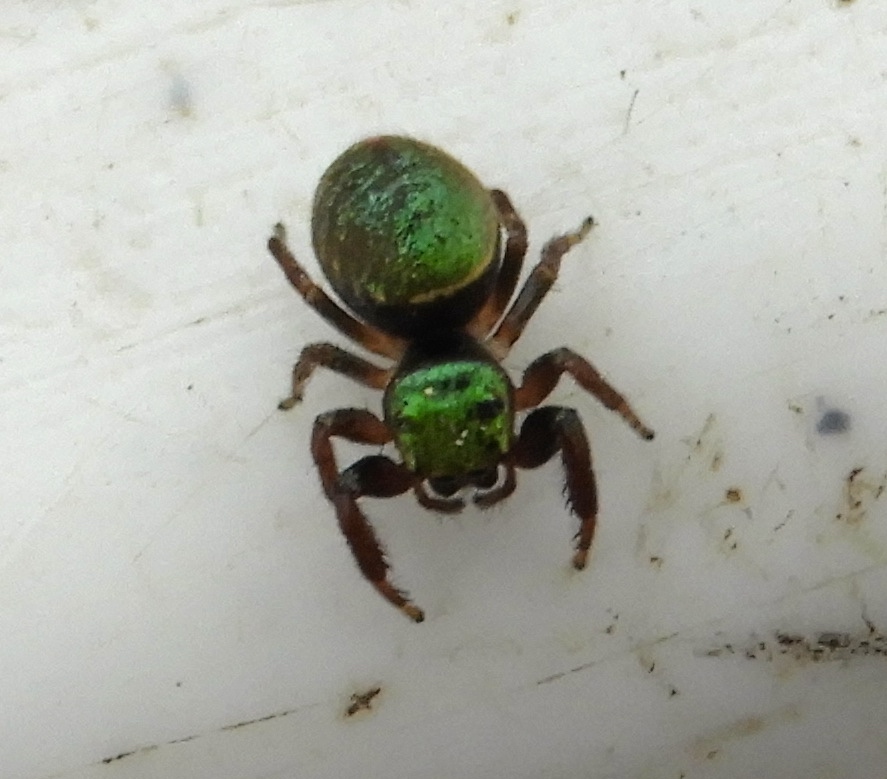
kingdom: Animalia
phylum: Arthropoda
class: Arachnida
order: Araneae
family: Salticidae
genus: Messua
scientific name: Messua limbata
